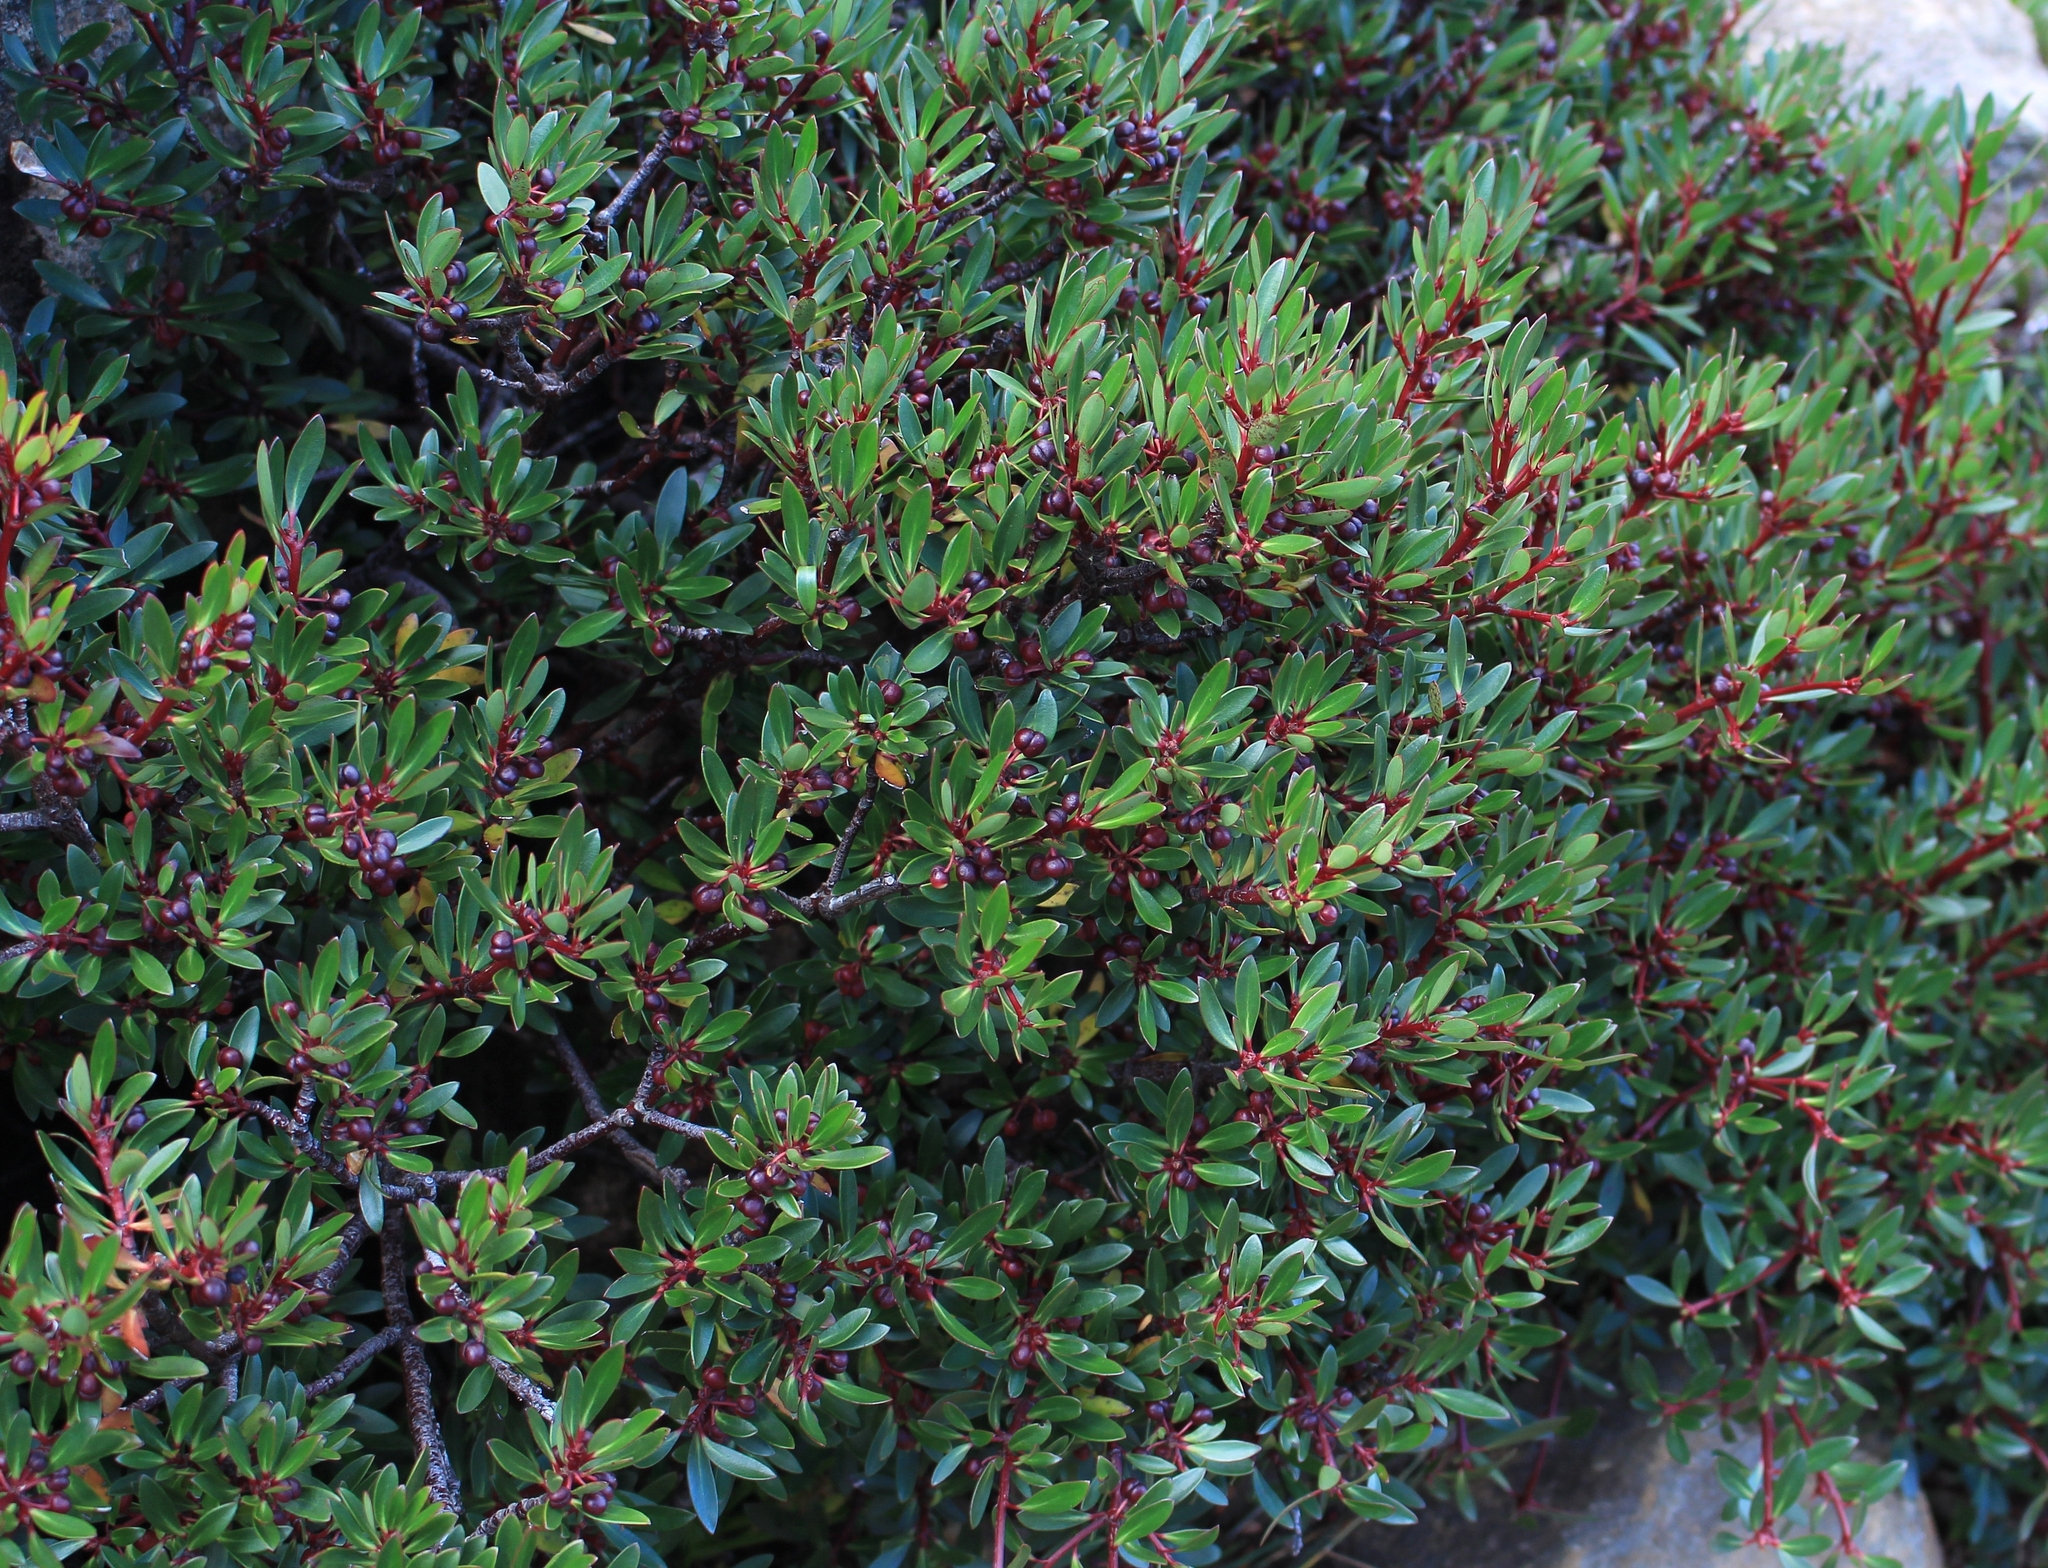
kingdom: Plantae
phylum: Tracheophyta
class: Magnoliopsida
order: Canellales
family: Winteraceae
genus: Drimys
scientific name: Drimys aromatica
